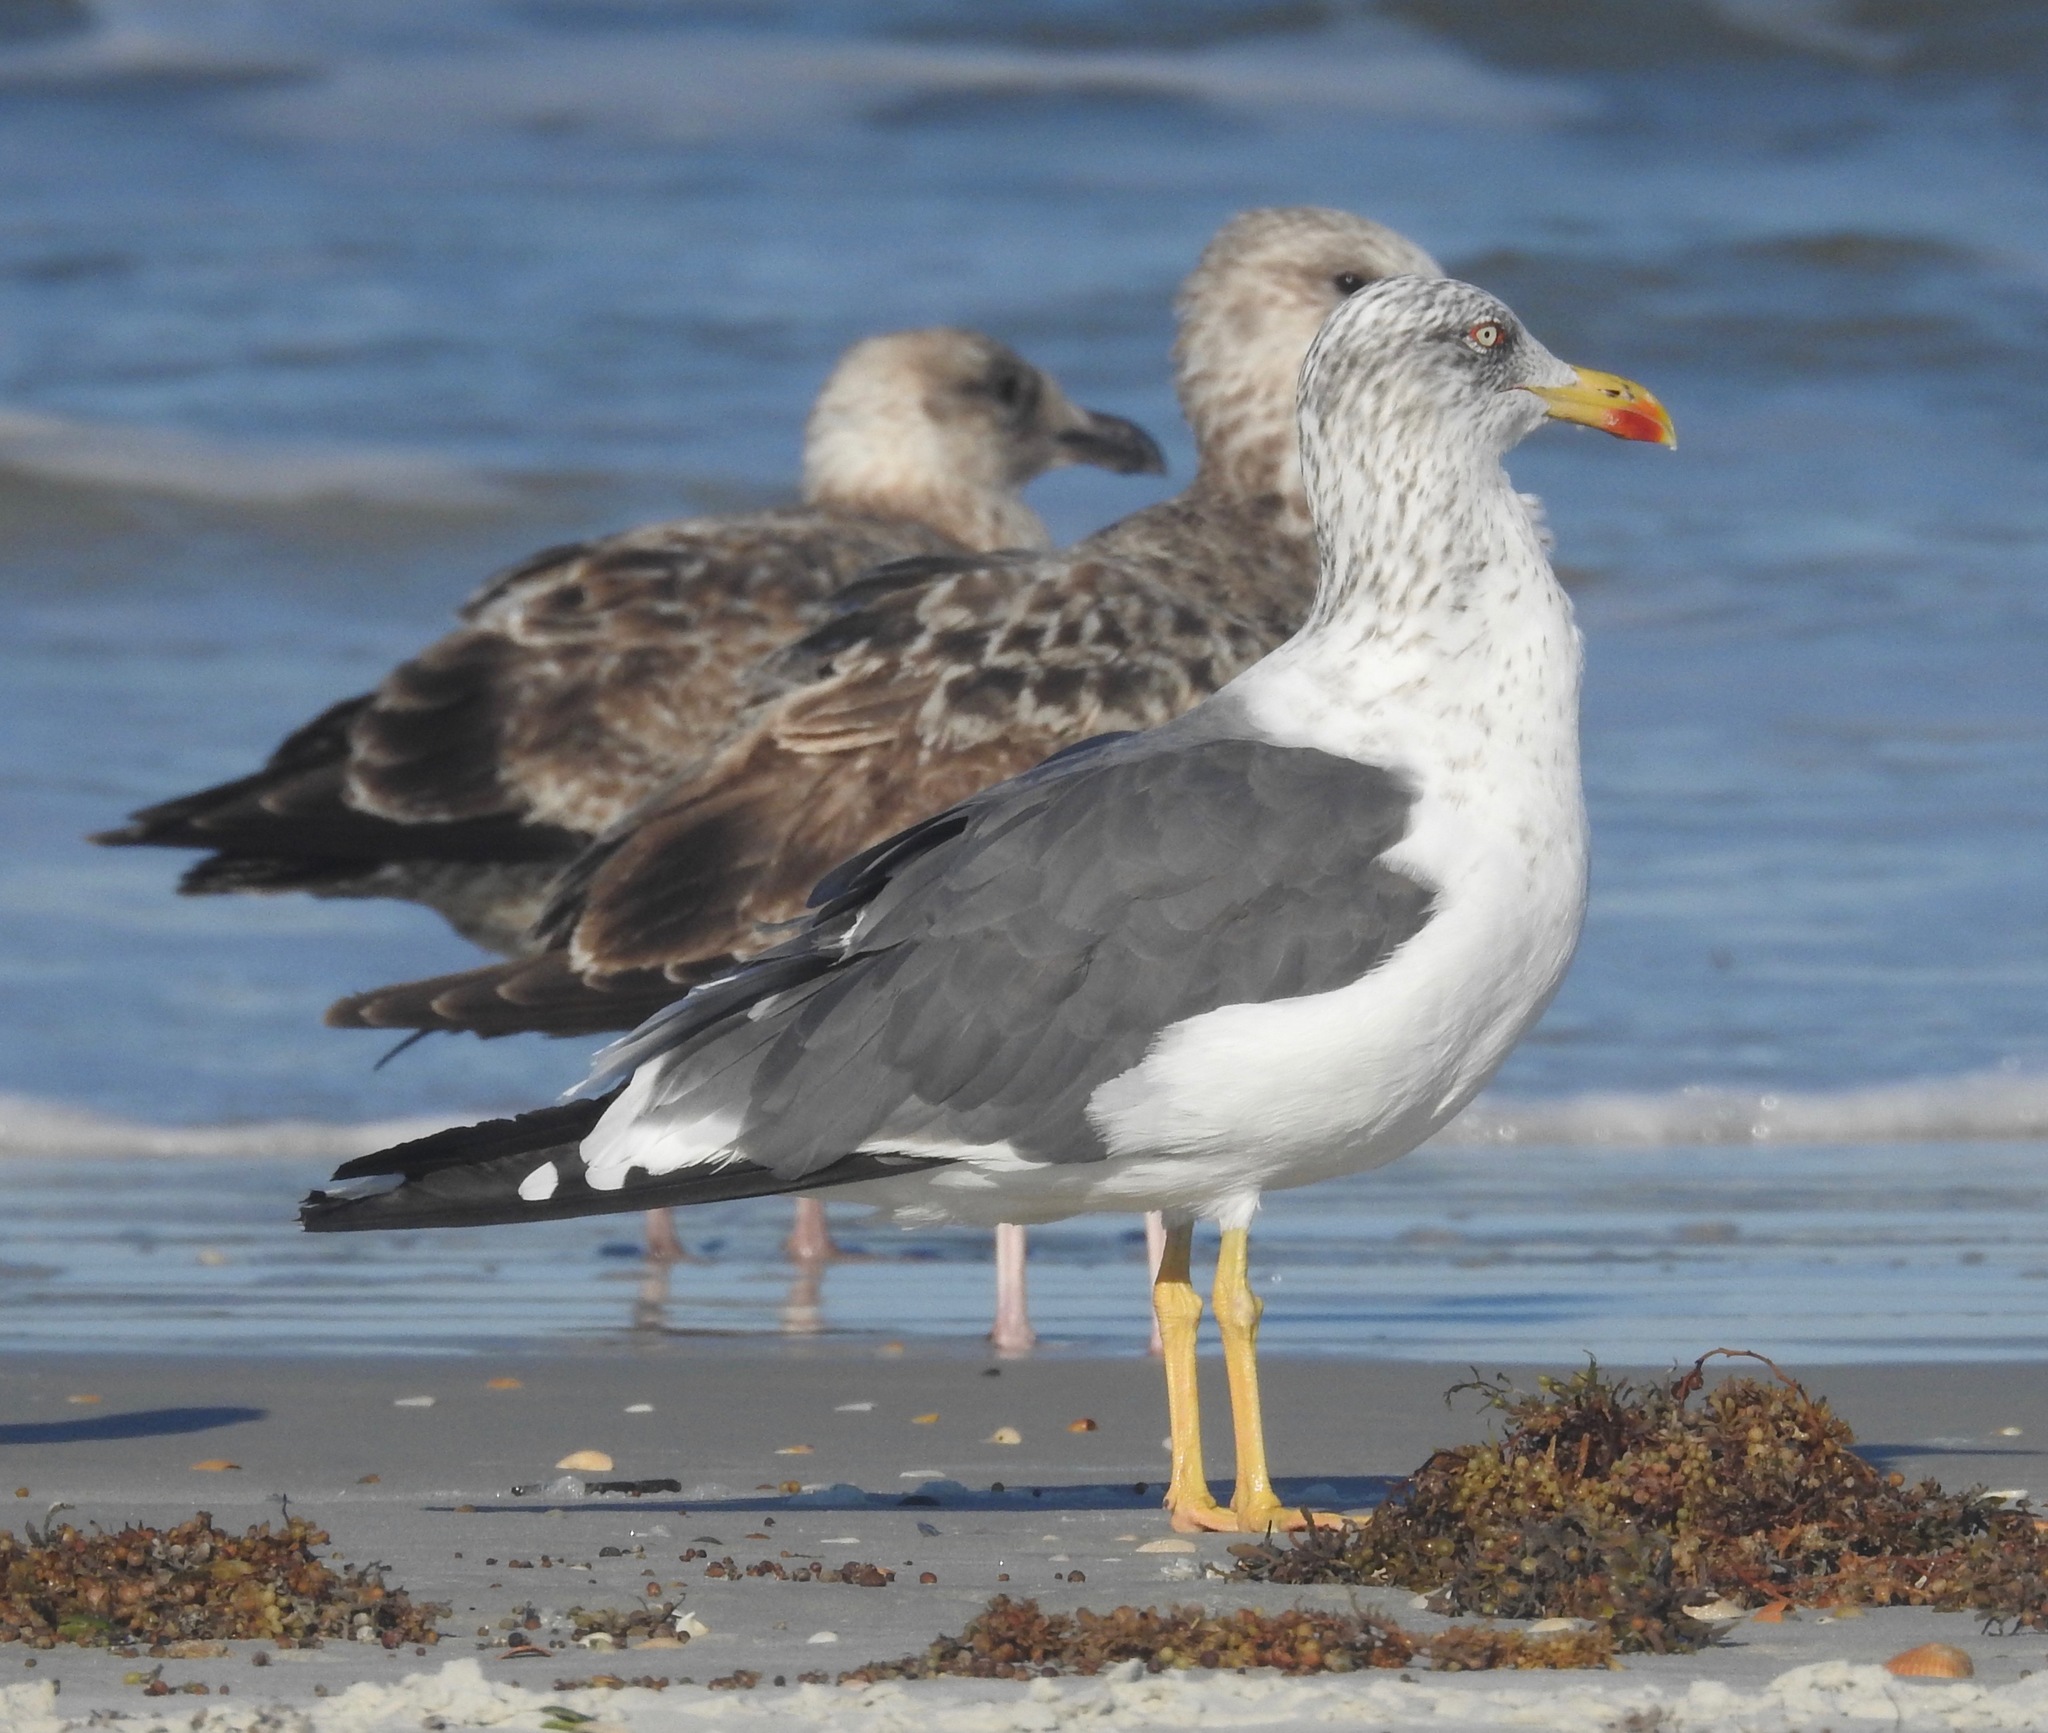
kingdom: Animalia
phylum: Chordata
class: Aves
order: Charadriiformes
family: Laridae
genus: Larus
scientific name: Larus fuscus
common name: Lesser black-backed gull
